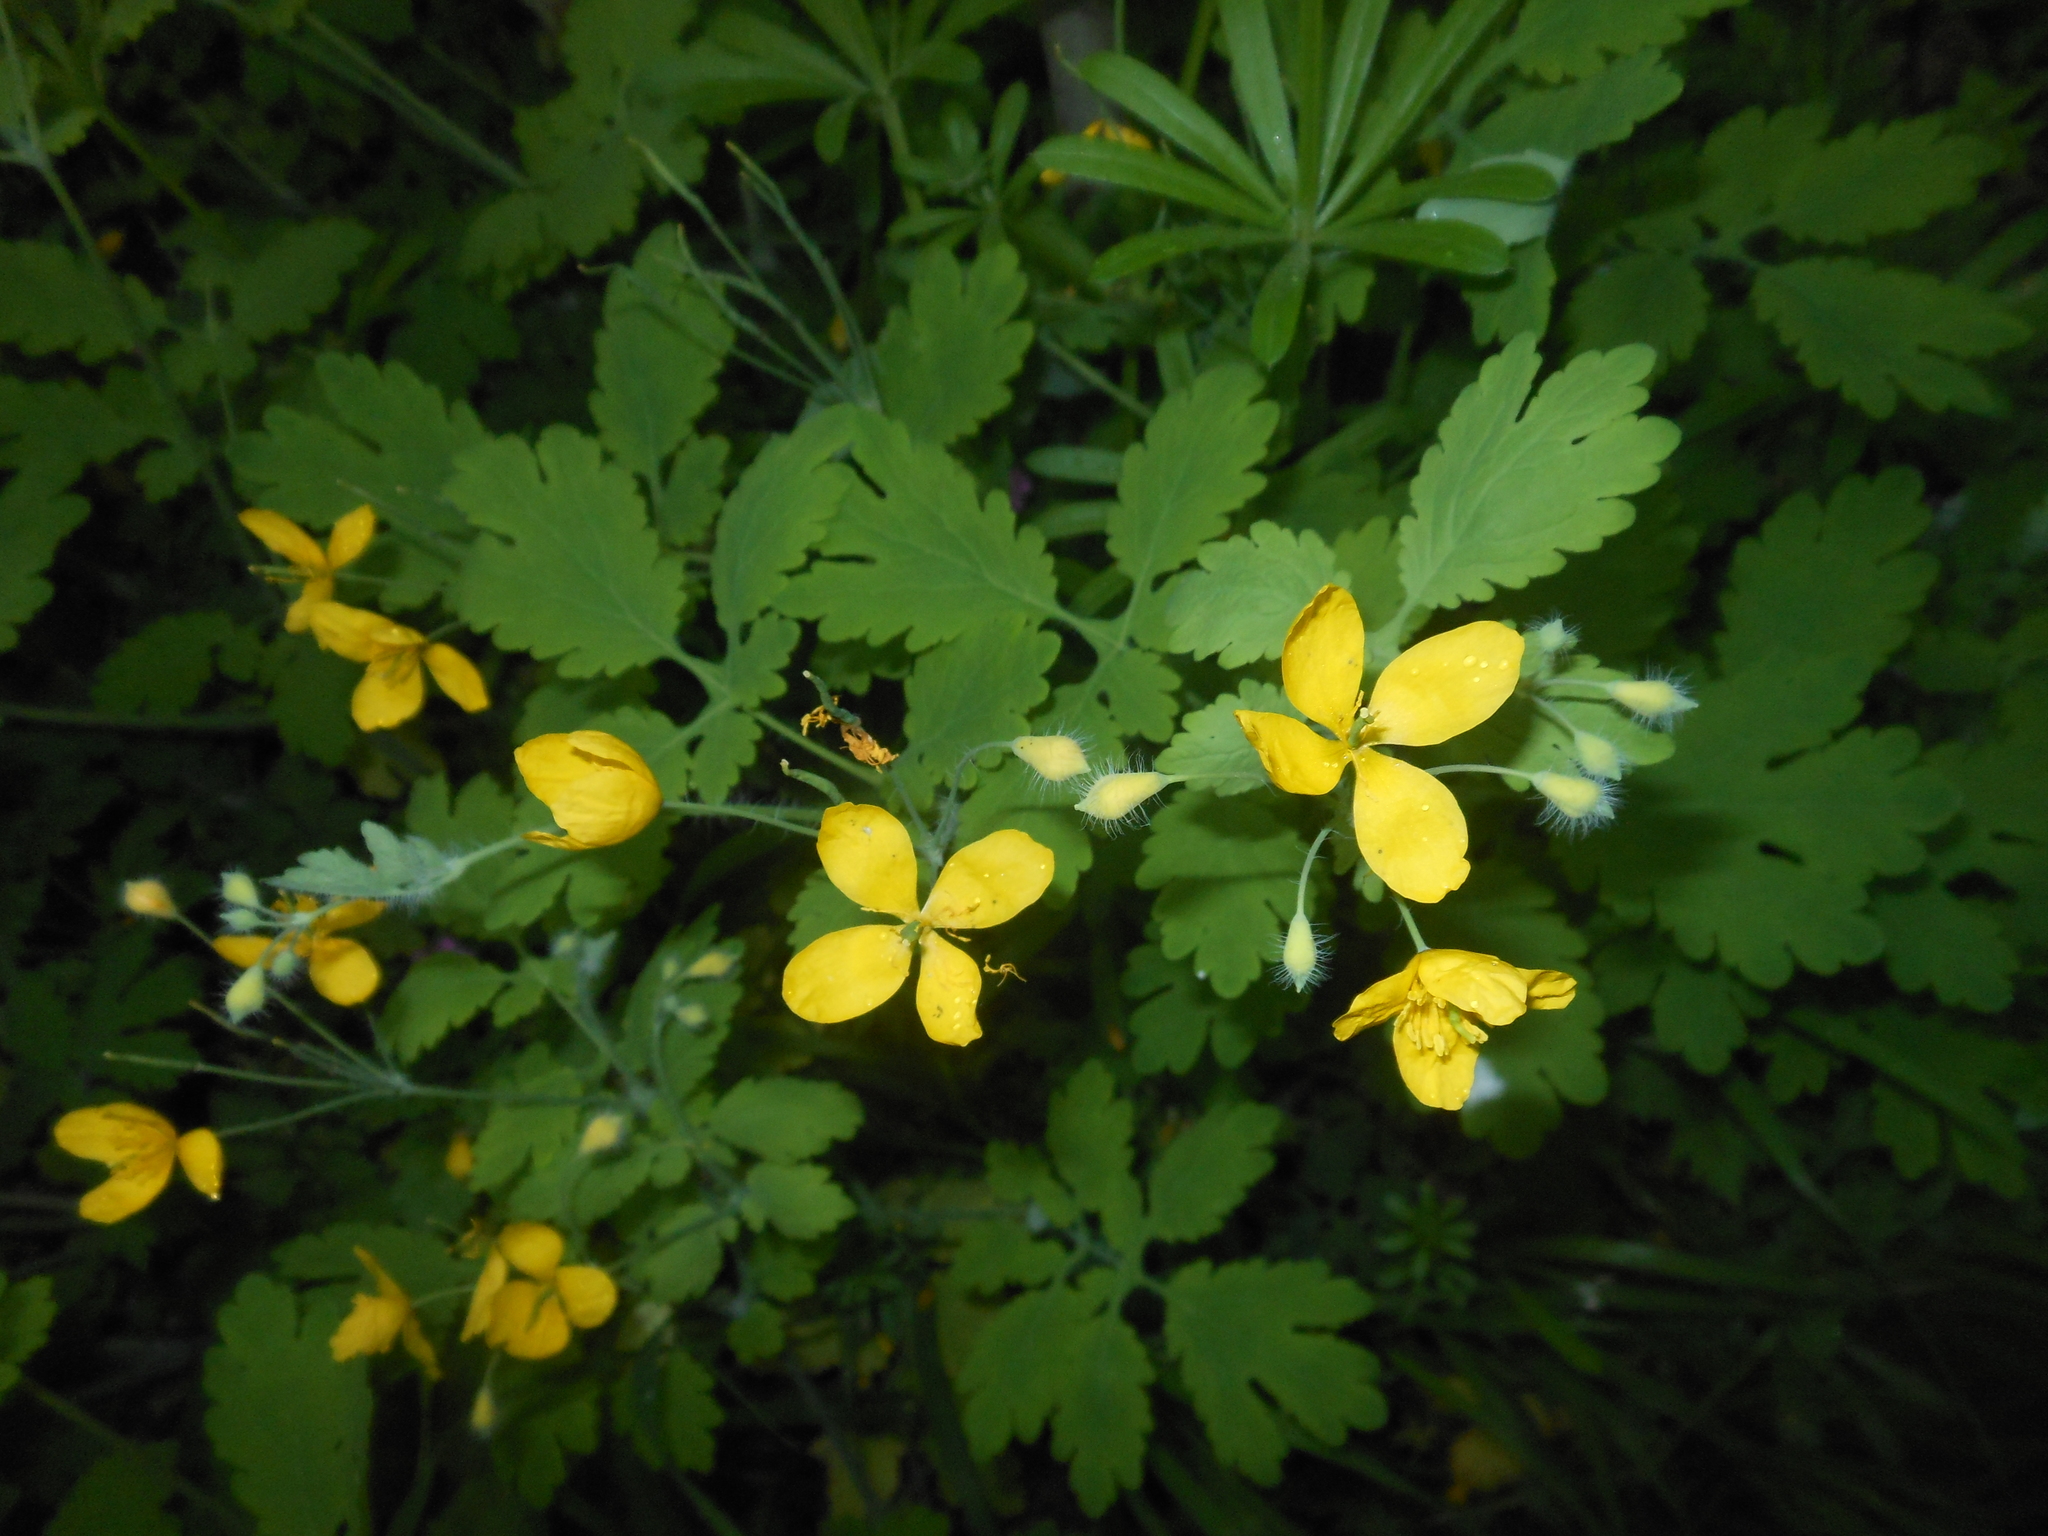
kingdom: Plantae
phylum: Tracheophyta
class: Magnoliopsida
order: Ranunculales
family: Papaveraceae
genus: Chelidonium
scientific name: Chelidonium majus
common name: Greater celandine
